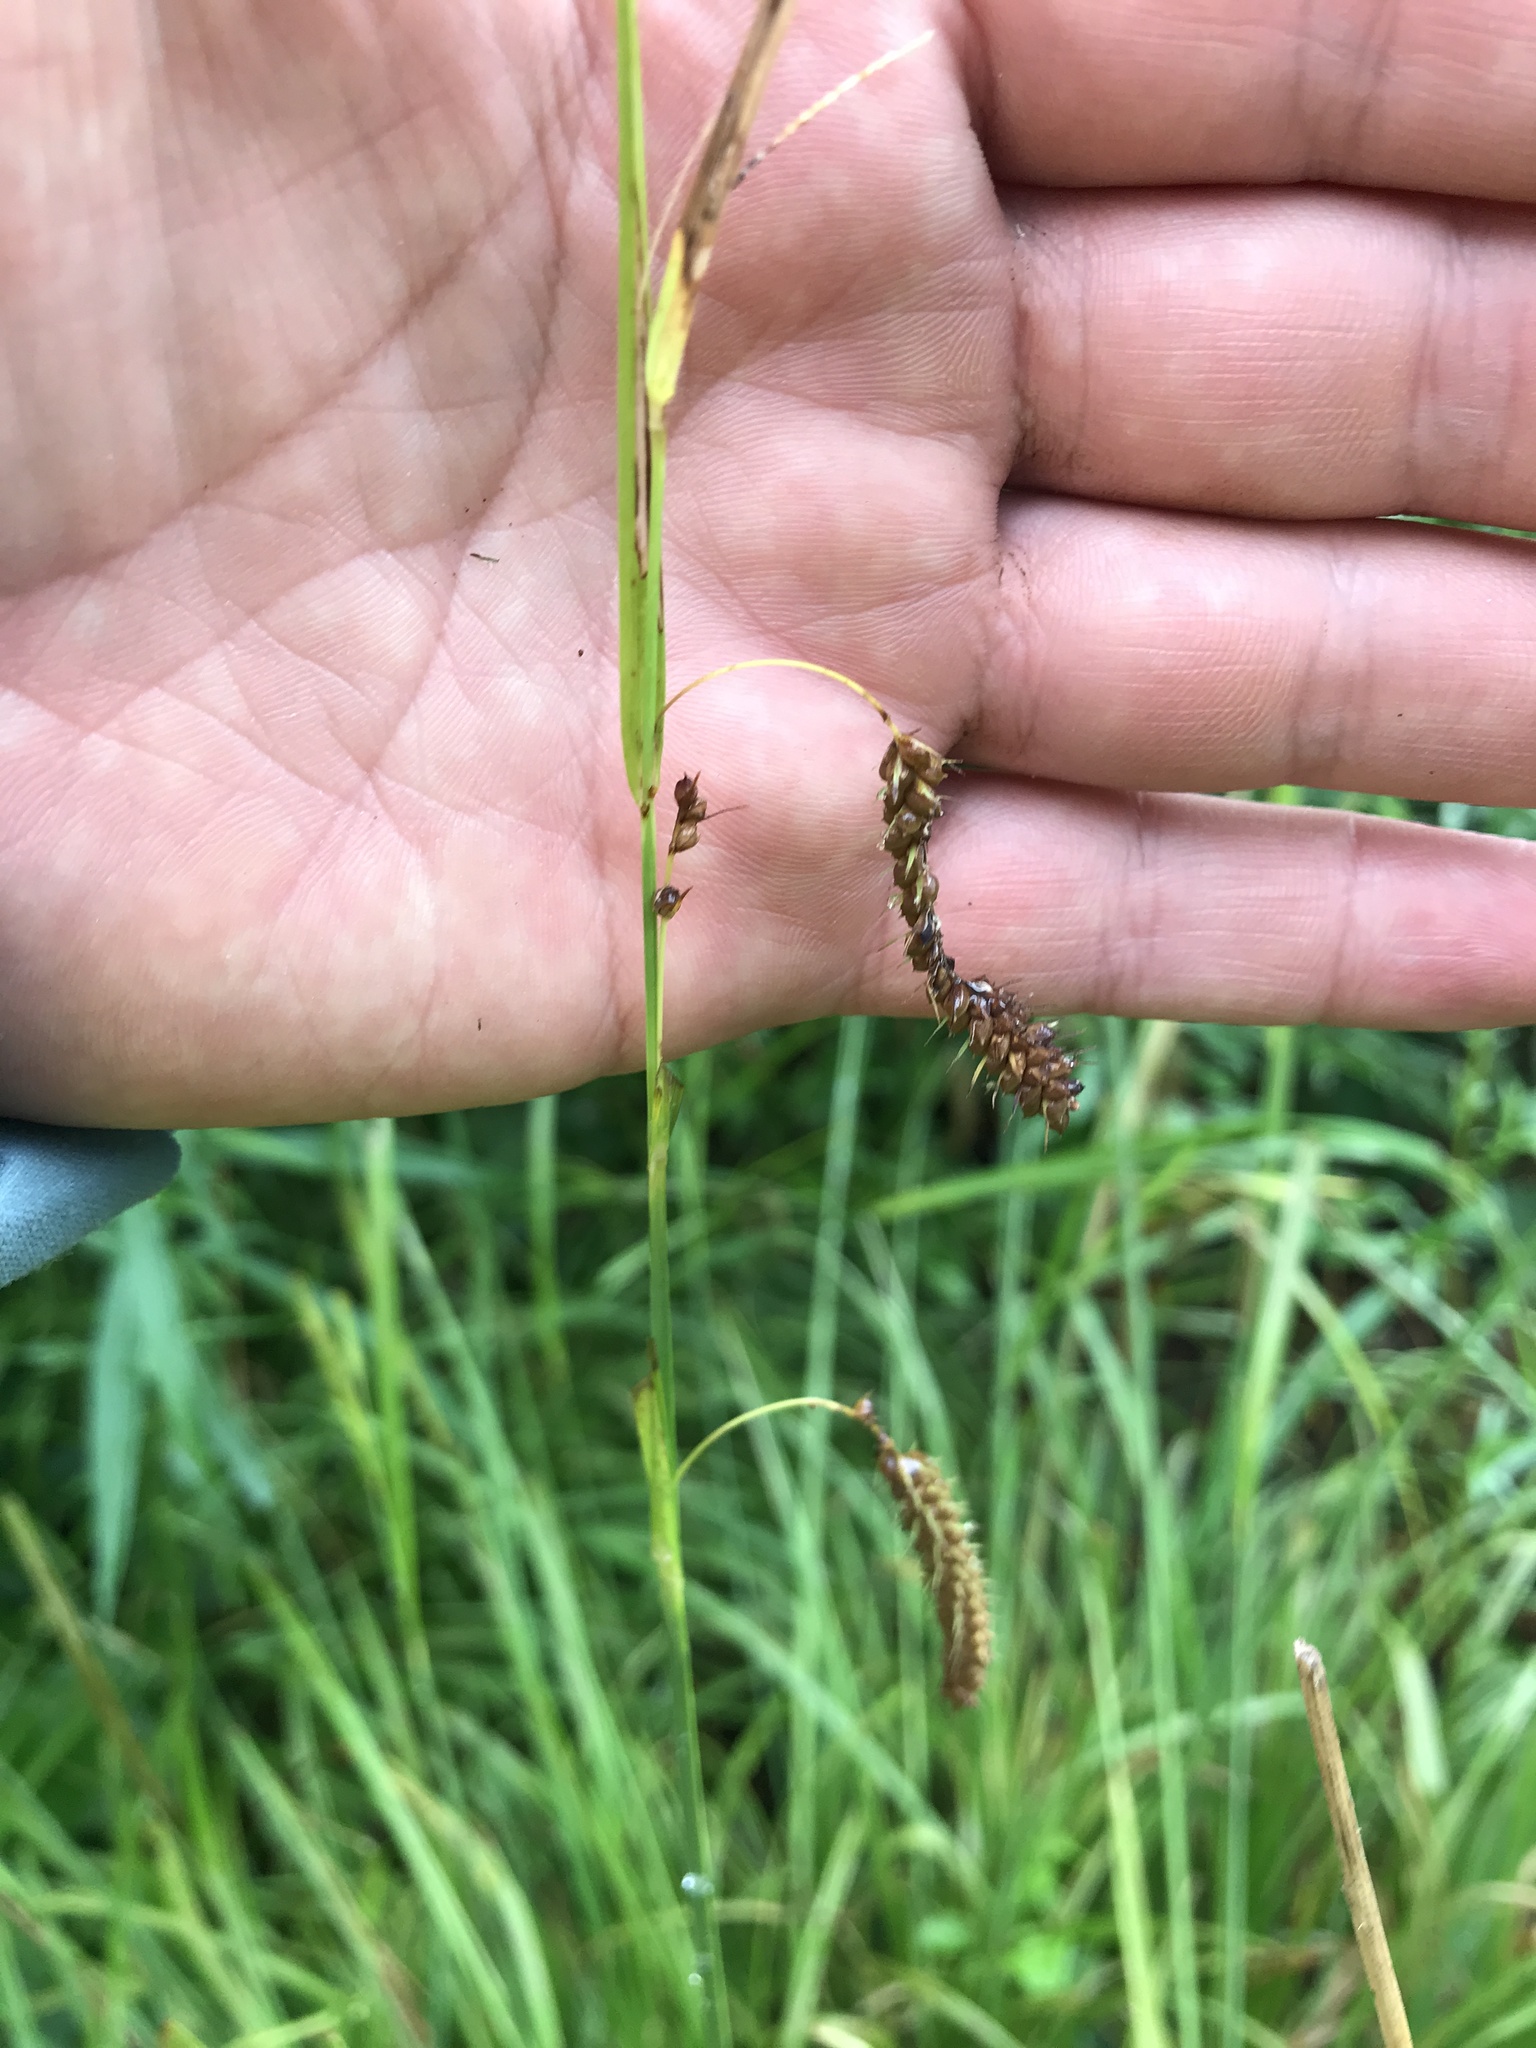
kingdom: Plantae
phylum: Tracheophyta
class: Liliopsida
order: Poales
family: Cyperaceae
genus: Carex
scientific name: Carex crinita
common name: Fringed sedge
